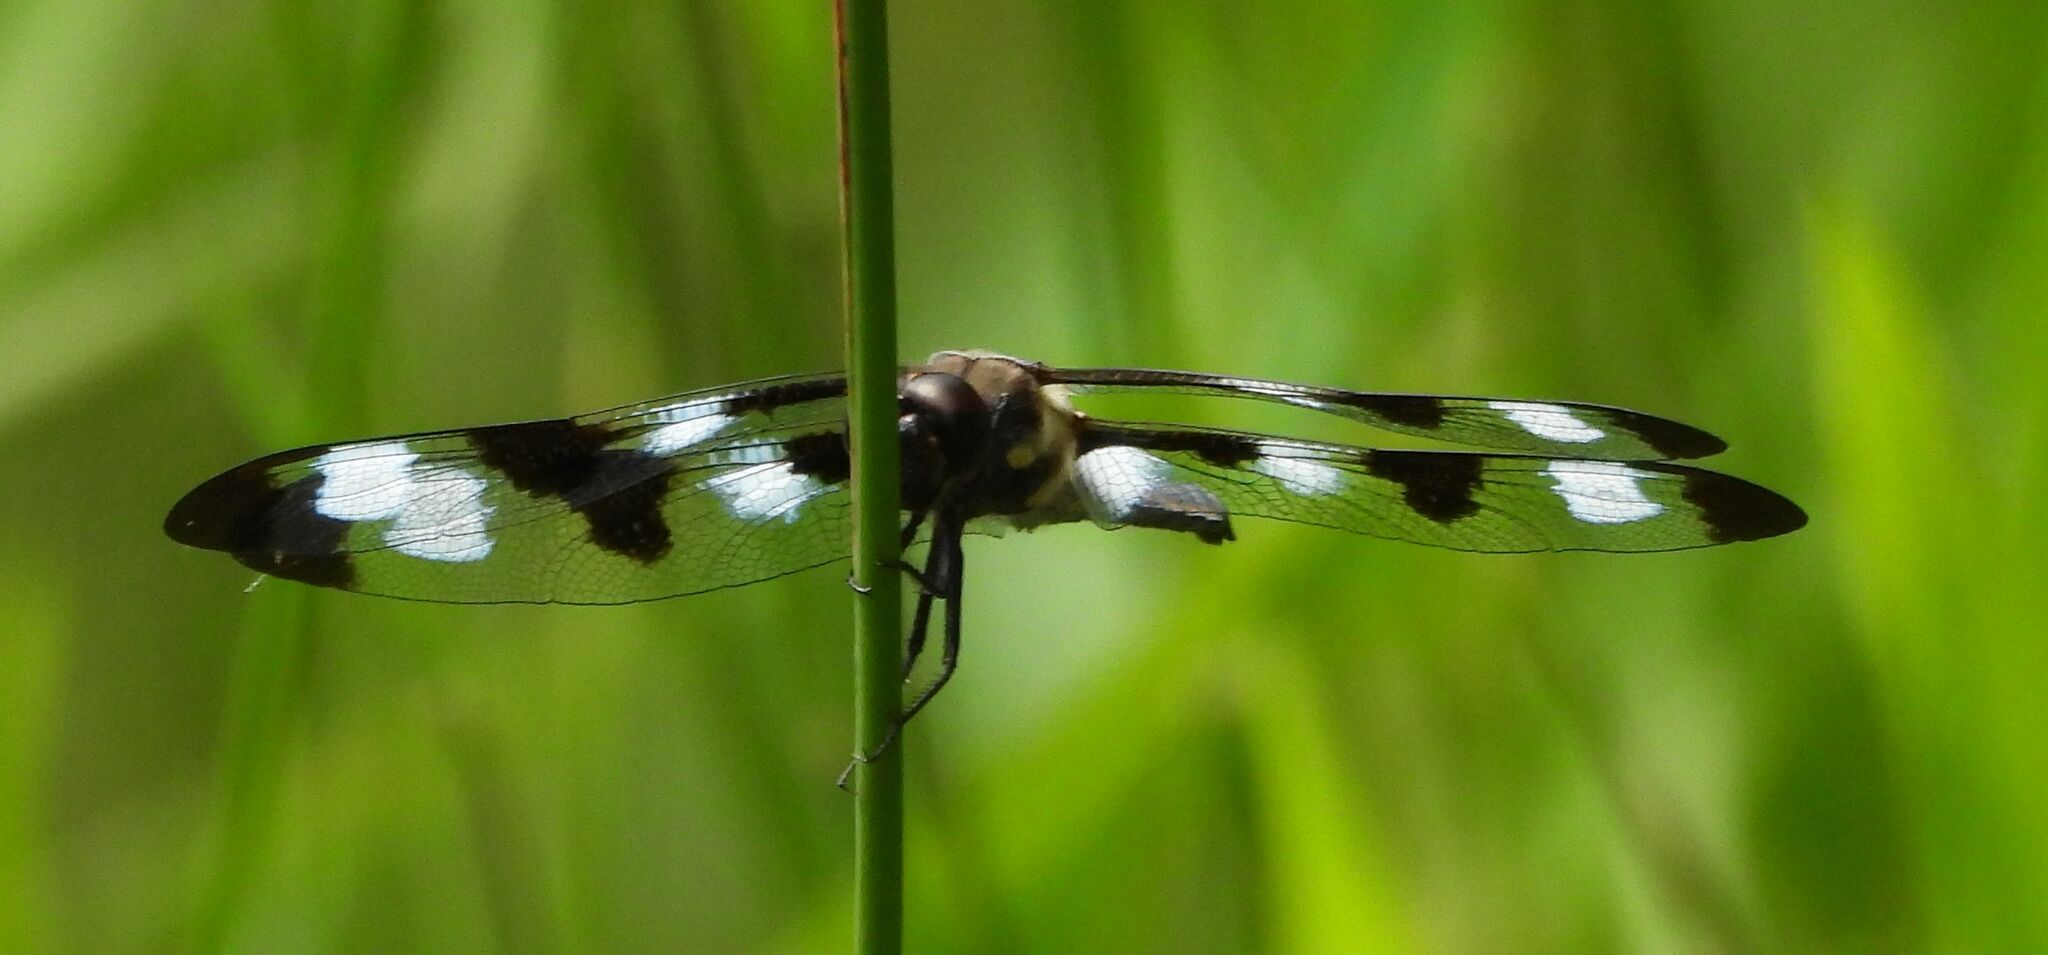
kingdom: Animalia
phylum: Arthropoda
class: Insecta
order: Odonata
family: Libellulidae
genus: Libellula
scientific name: Libellula pulchella
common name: Twelve-spotted skimmer
